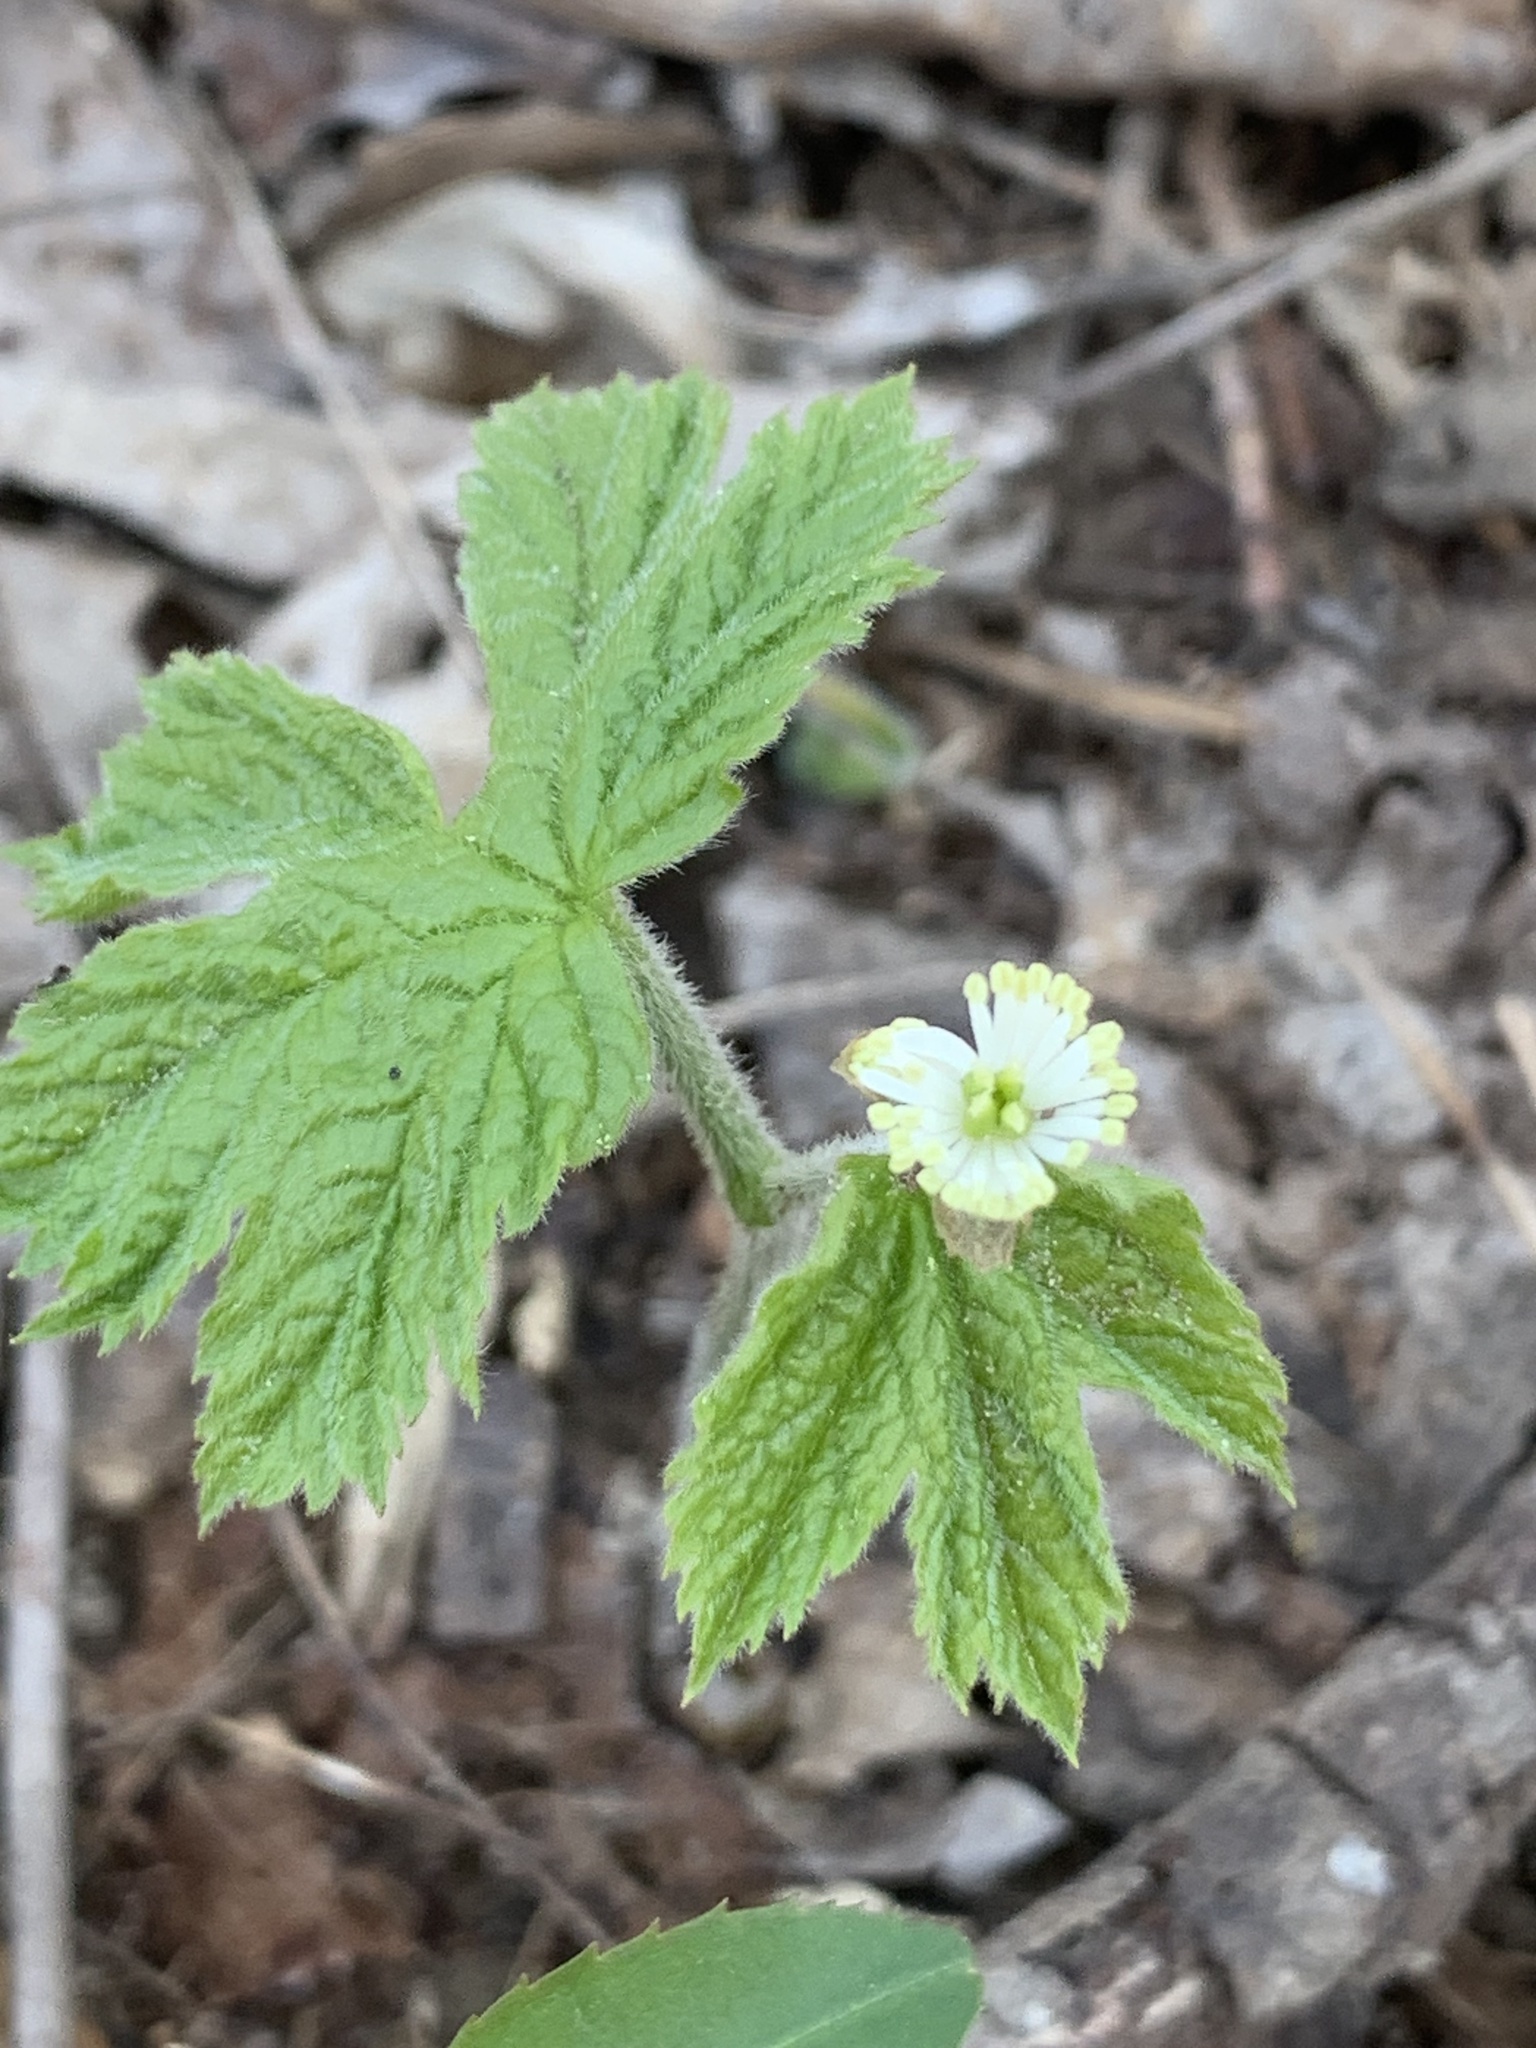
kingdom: Plantae
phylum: Tracheophyta
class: Magnoliopsida
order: Ranunculales
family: Ranunculaceae
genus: Hydrastis
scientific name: Hydrastis canadensis
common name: Goldenseal
